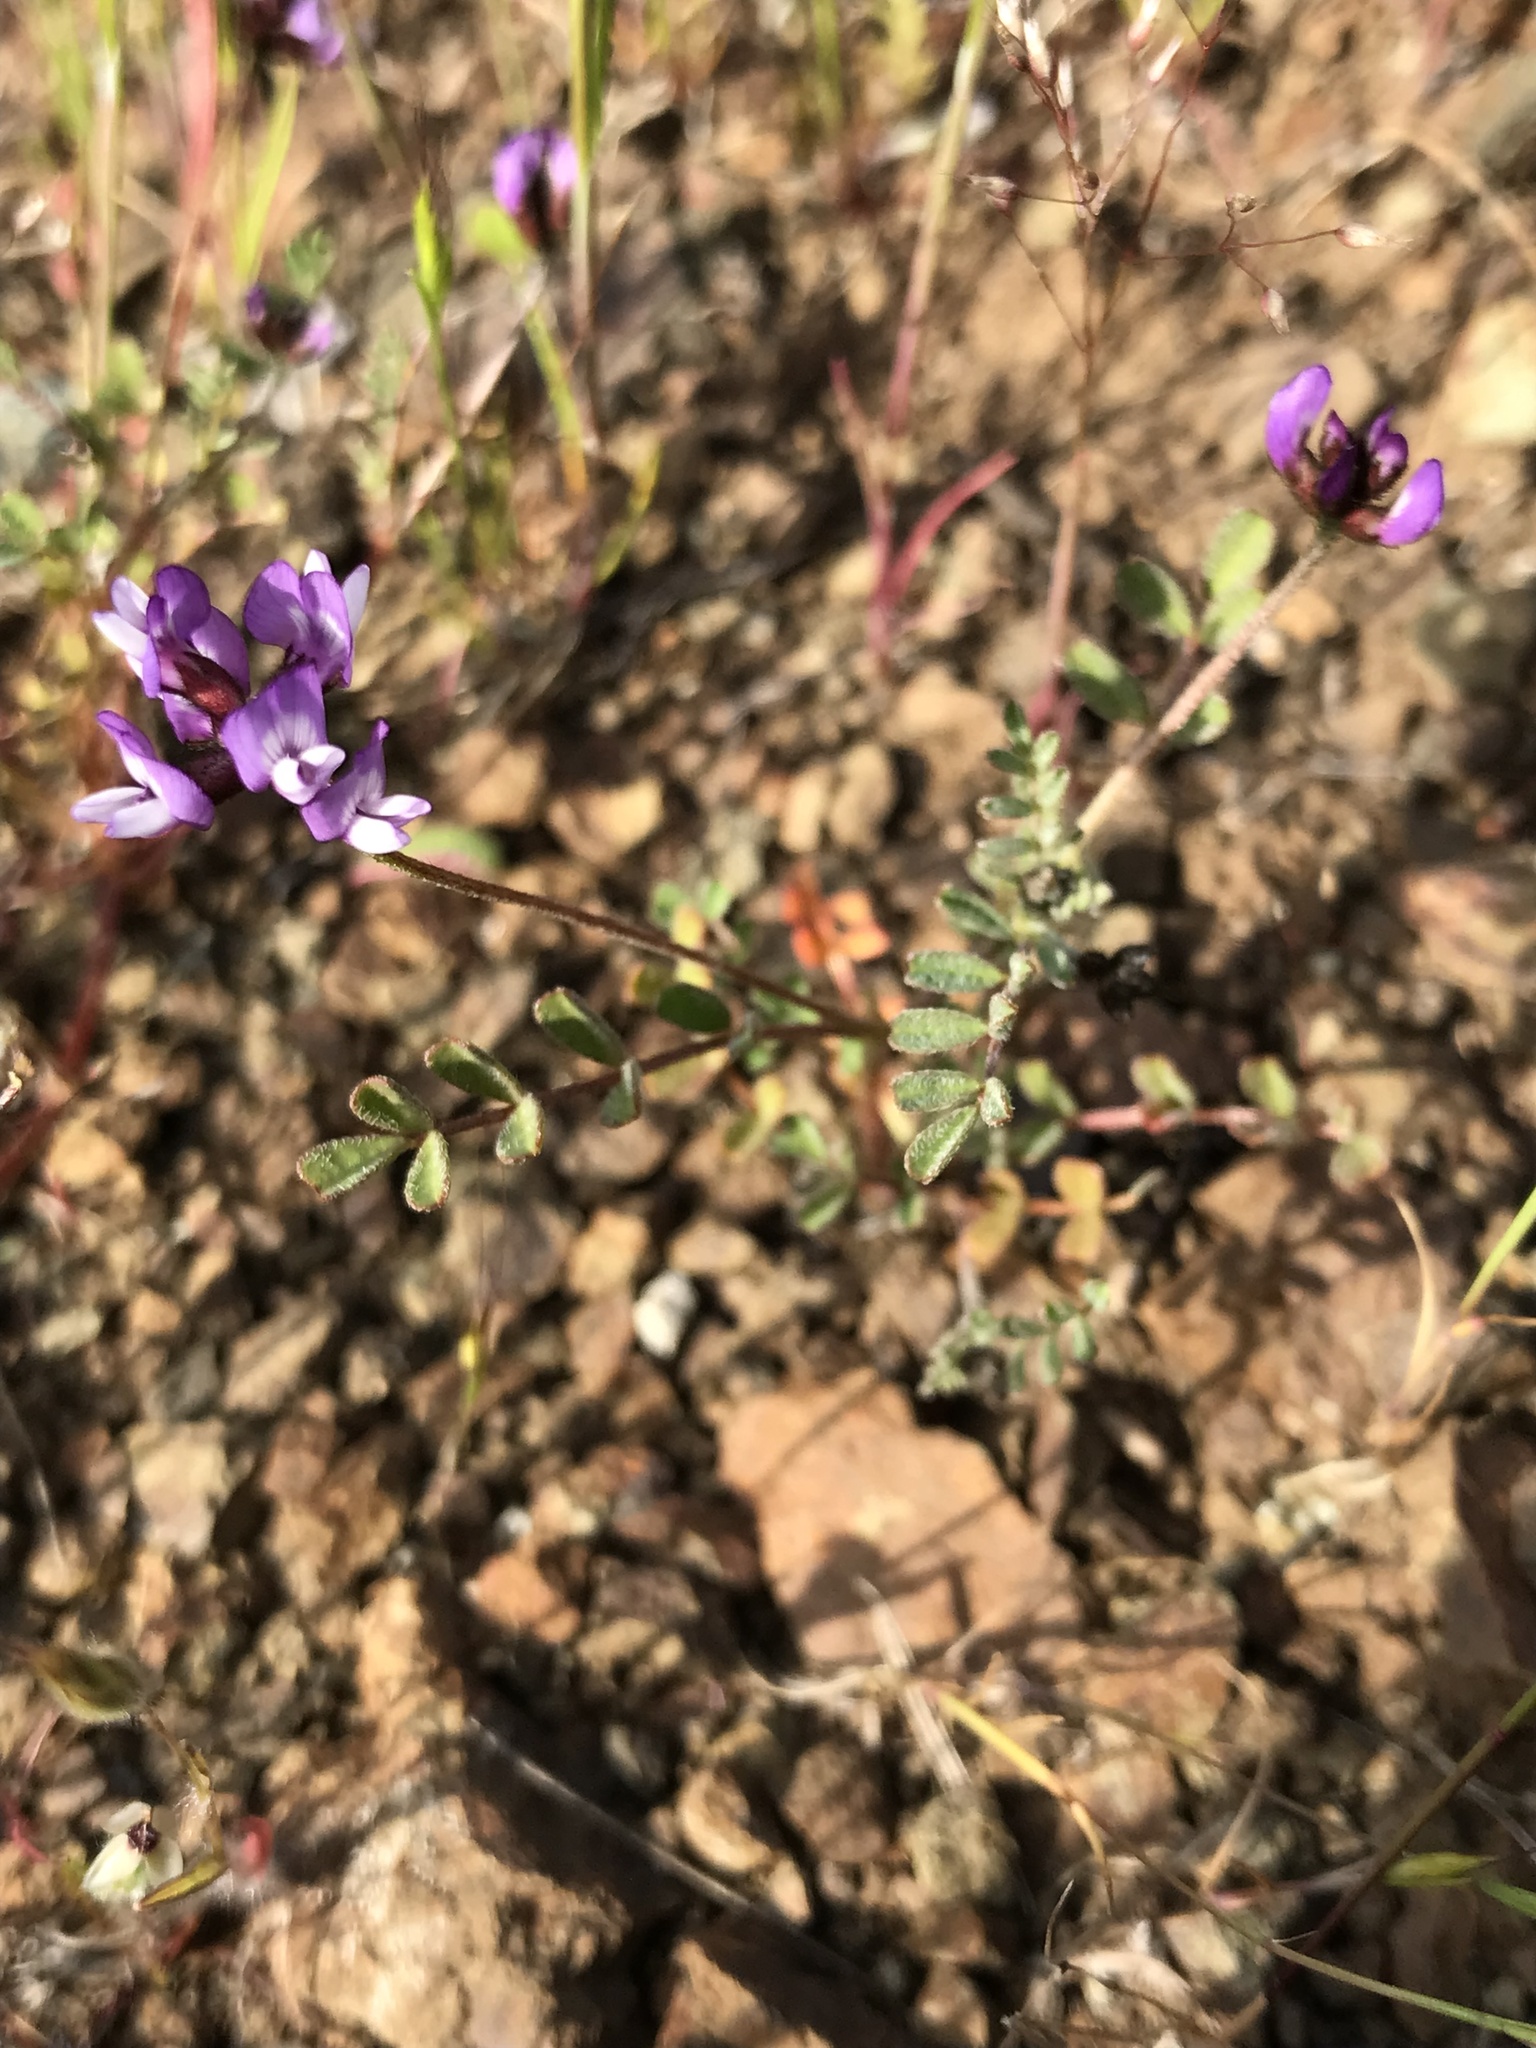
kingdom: Plantae
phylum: Tracheophyta
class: Magnoliopsida
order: Fabales
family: Fabaceae
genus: Astragalus
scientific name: Astragalus gambelianus
